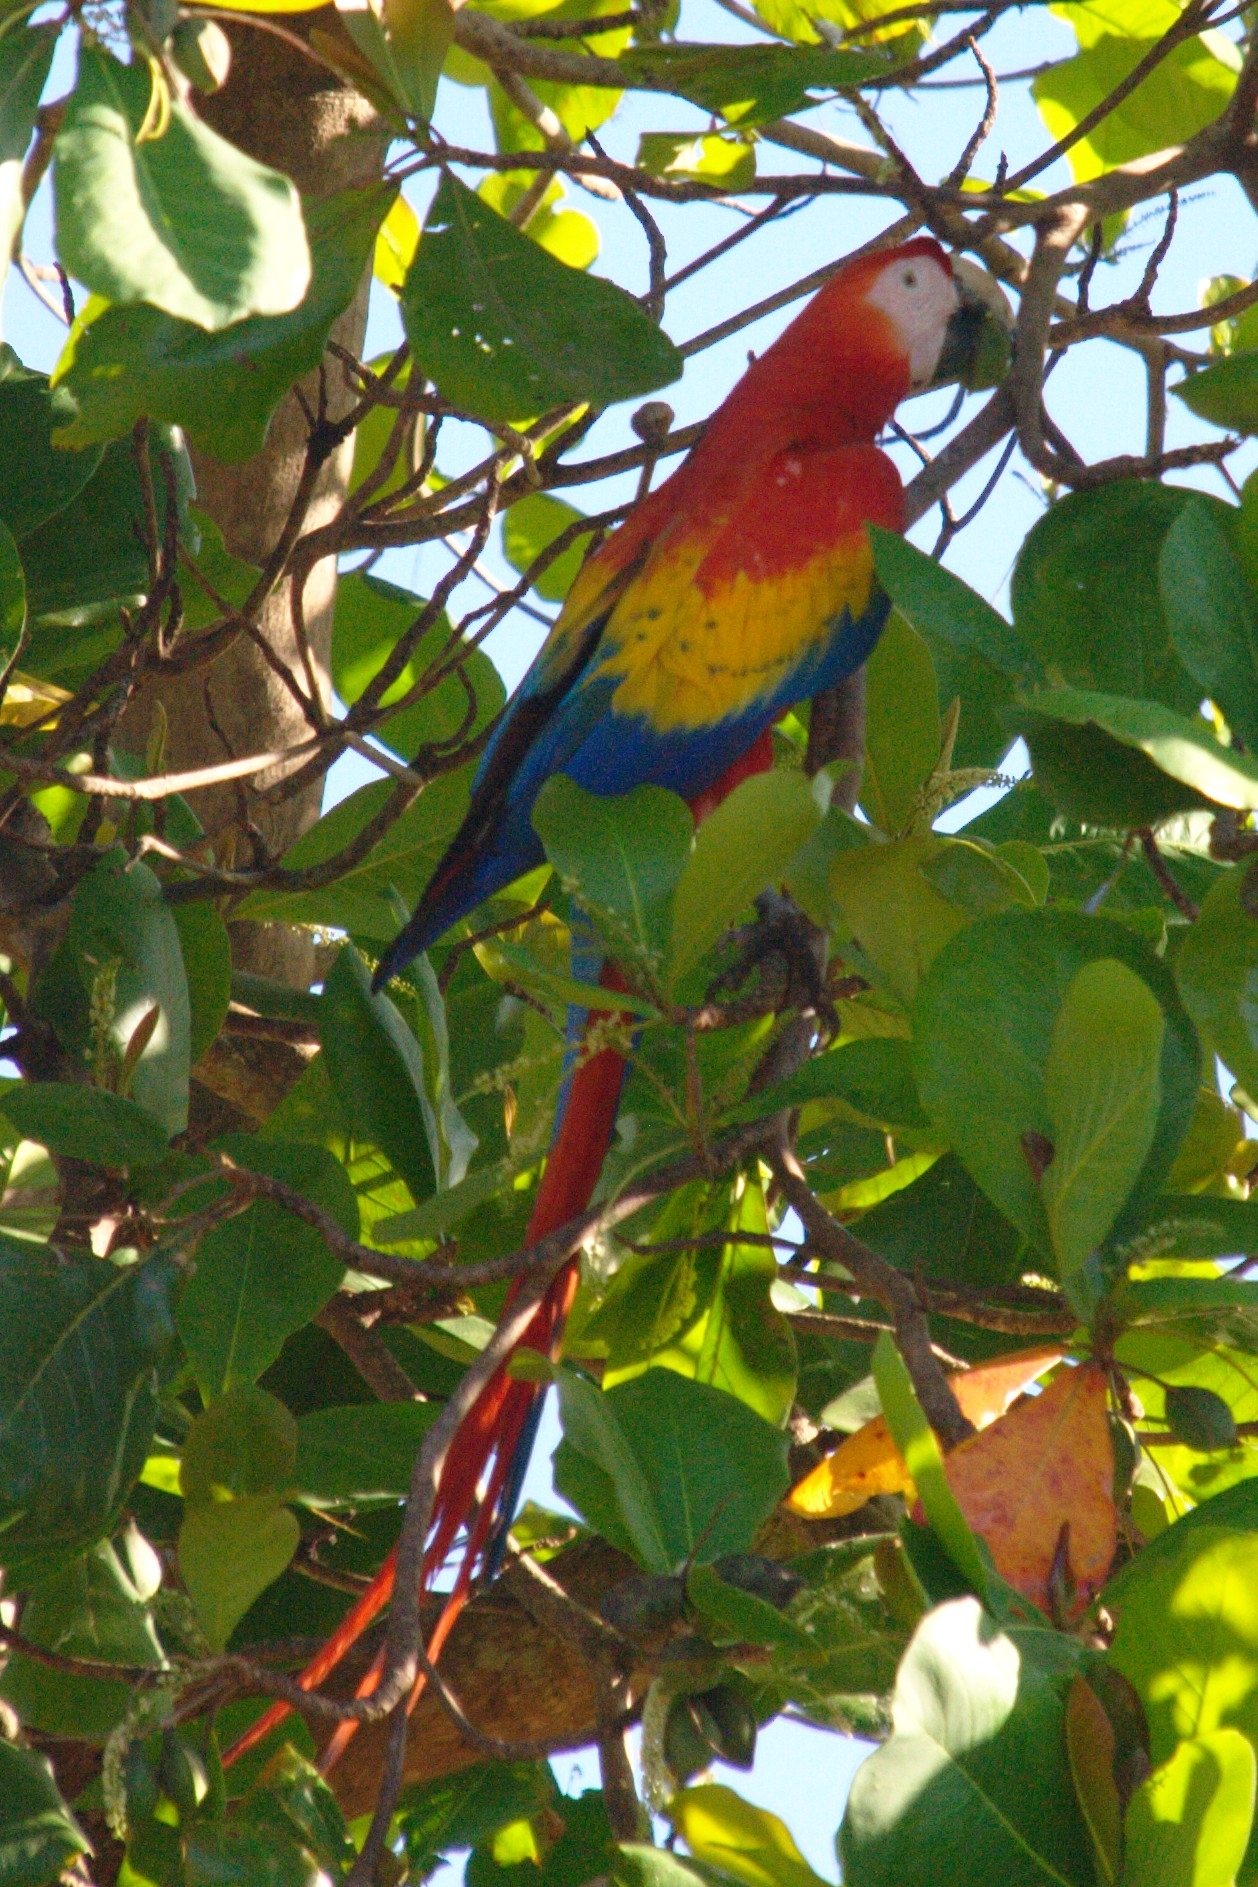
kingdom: Animalia
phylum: Chordata
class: Aves
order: Psittaciformes
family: Psittacidae
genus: Ara
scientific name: Ara macao
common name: Scarlet macaw
